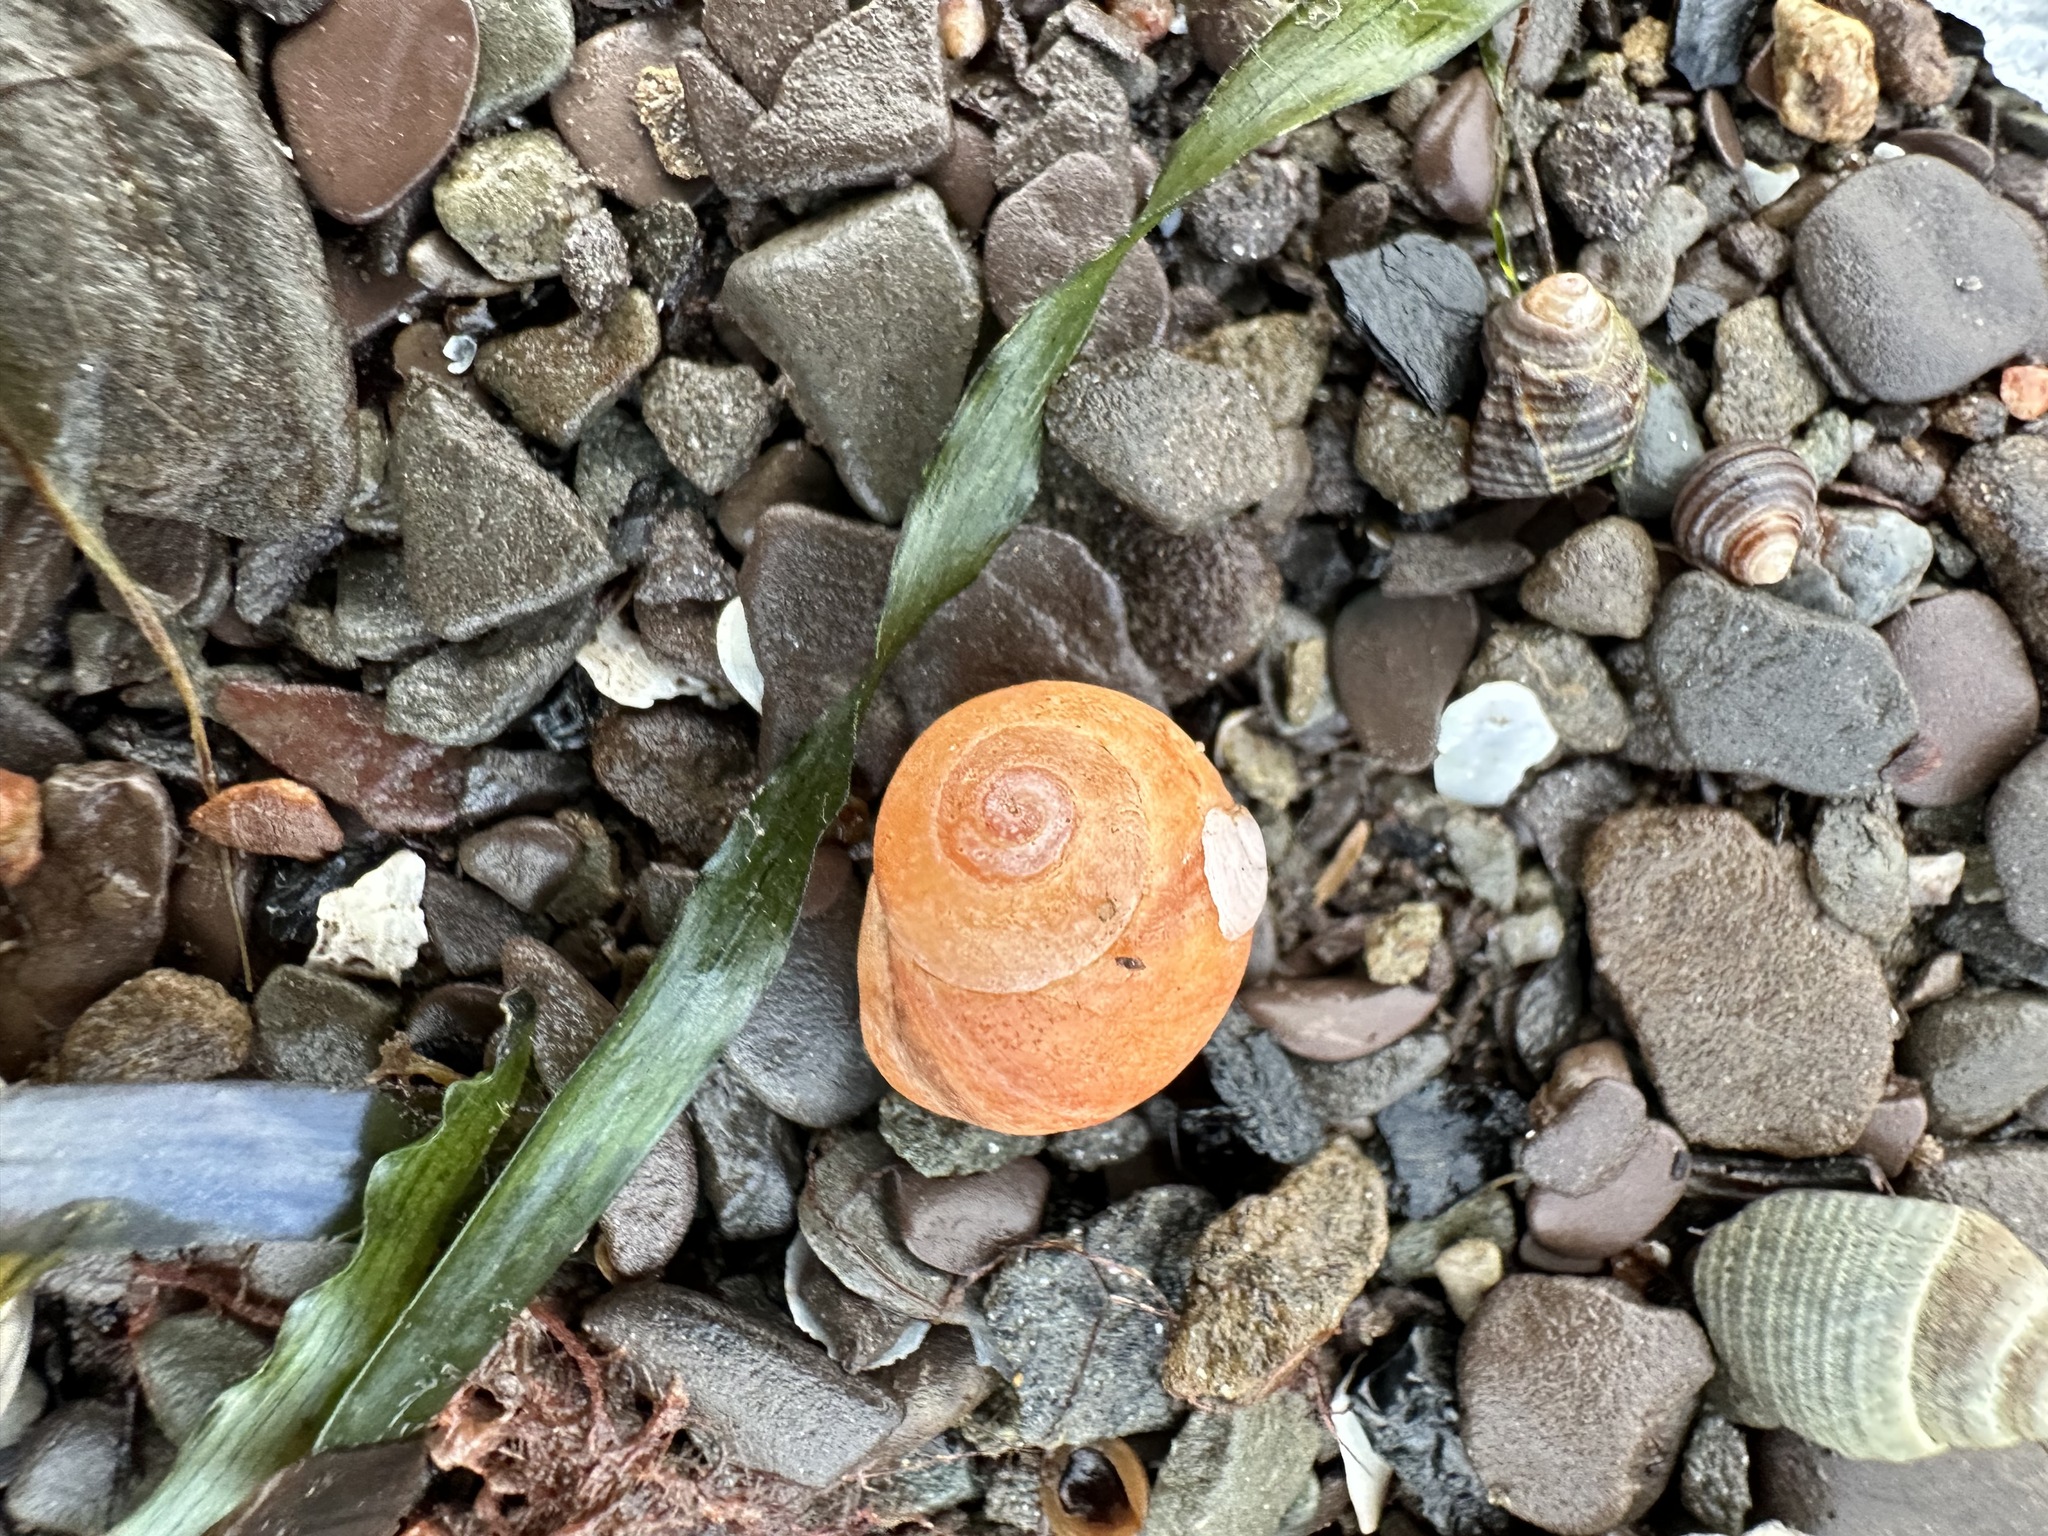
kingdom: Animalia
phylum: Mollusca
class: Gastropoda
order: Littorinimorpha
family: Littorinidae
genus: Littorina
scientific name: Littorina obtusata
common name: Flat periwinkle
